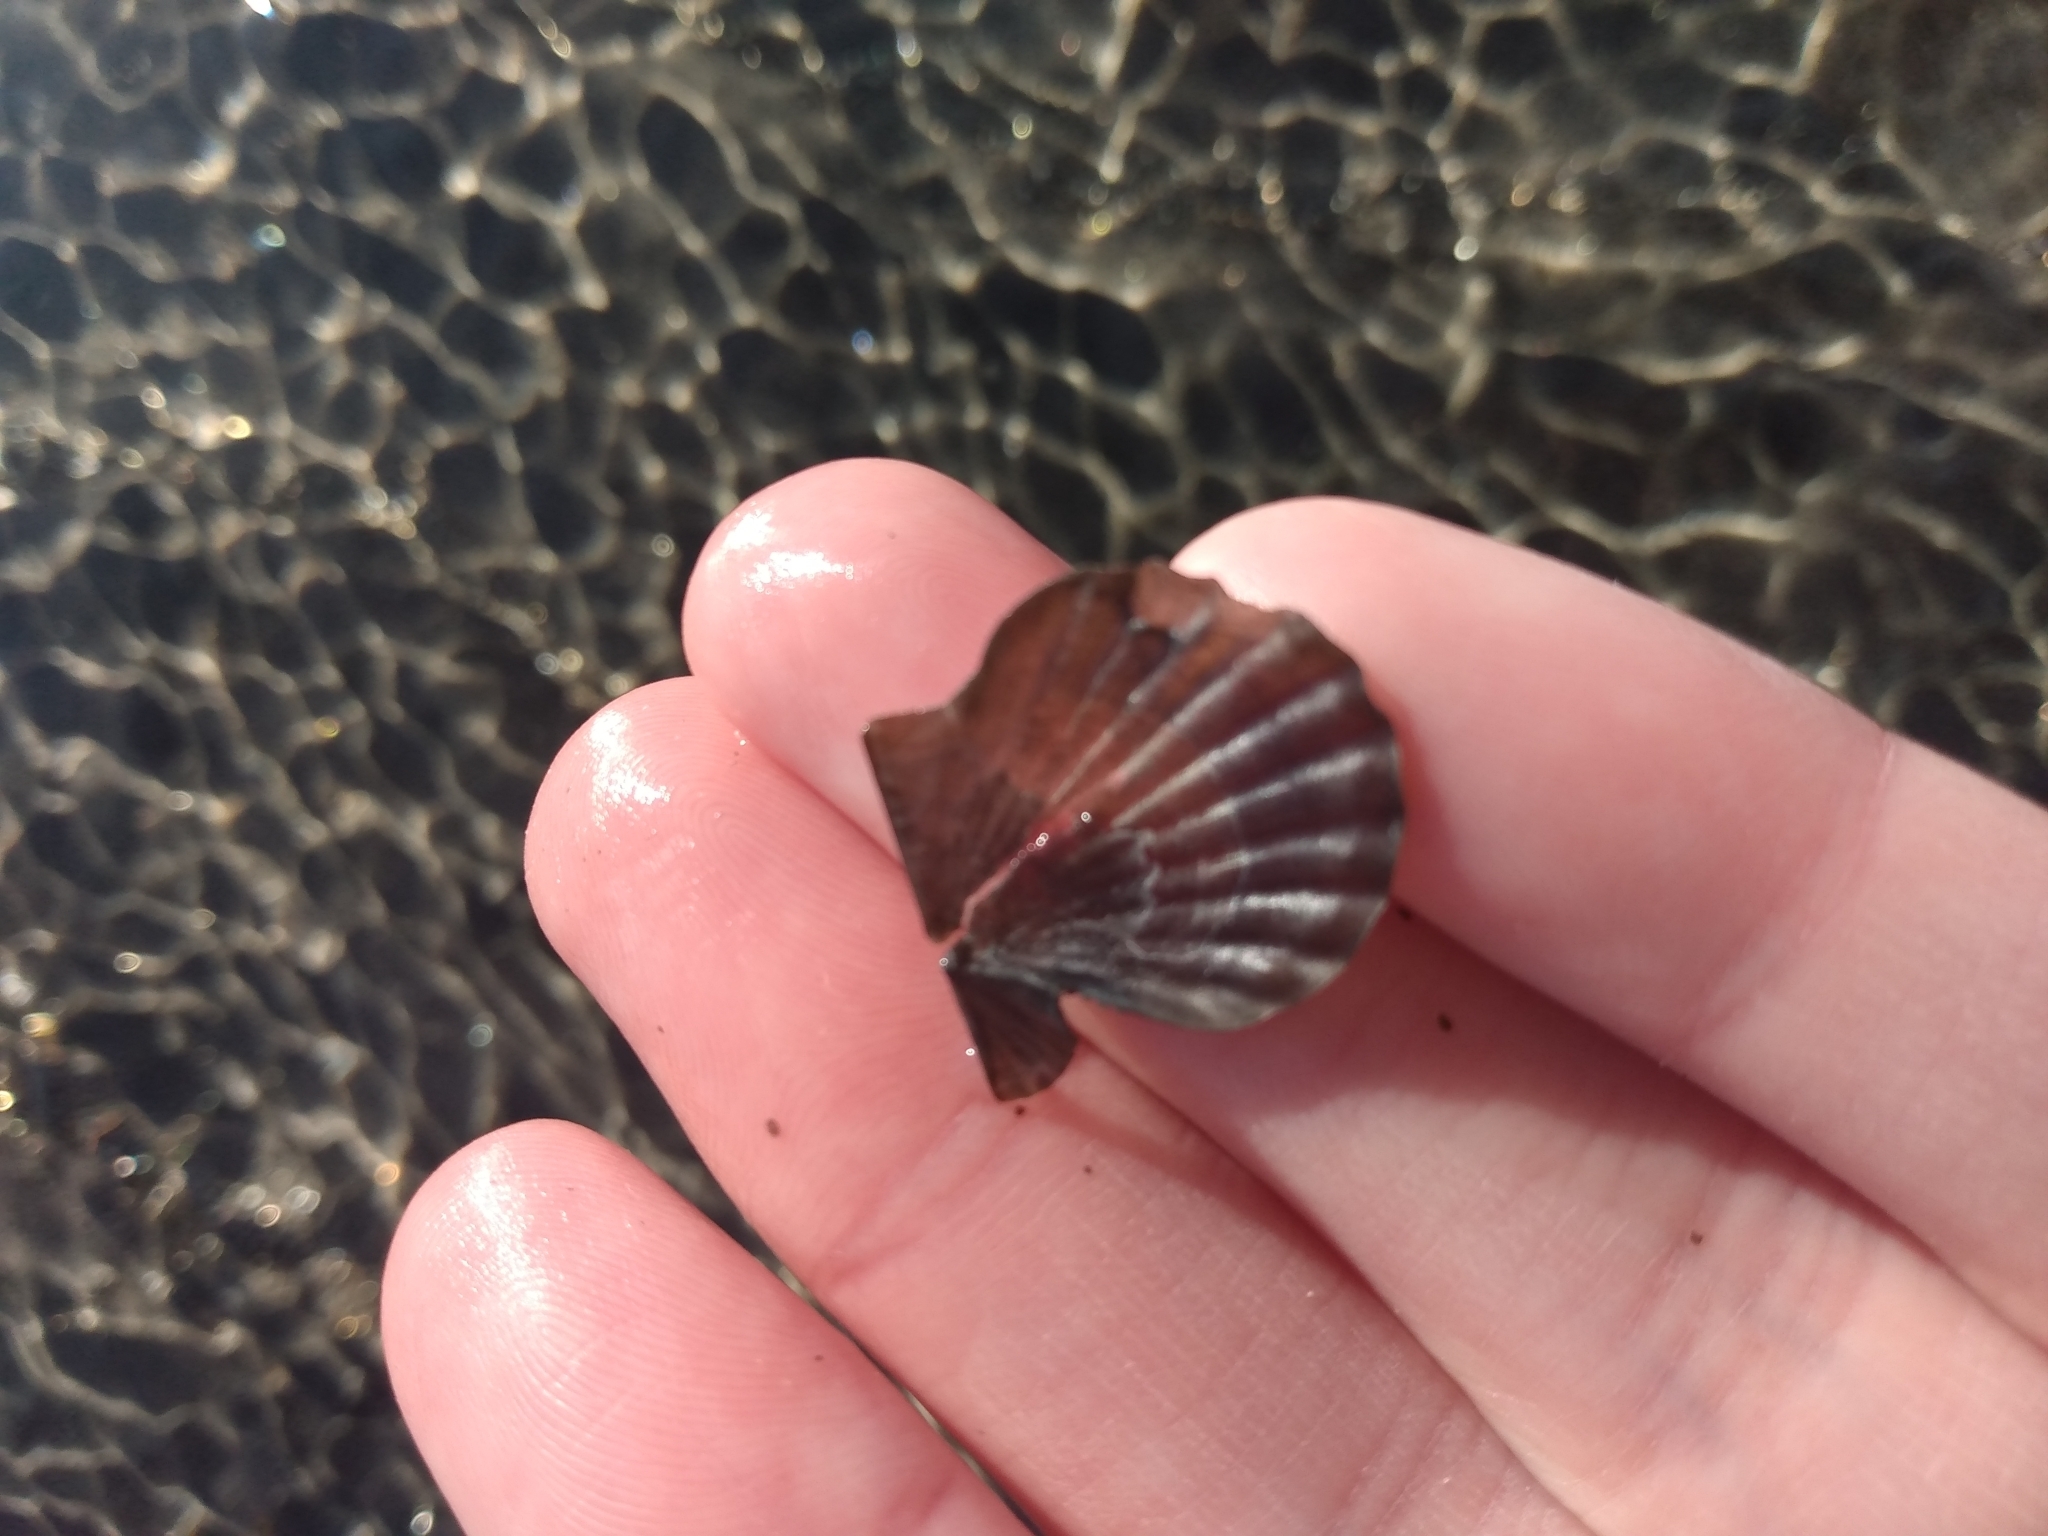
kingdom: Animalia
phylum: Mollusca
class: Bivalvia
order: Pectinida
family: Pectinidae
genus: Leptopecten
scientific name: Leptopecten latiauratus
